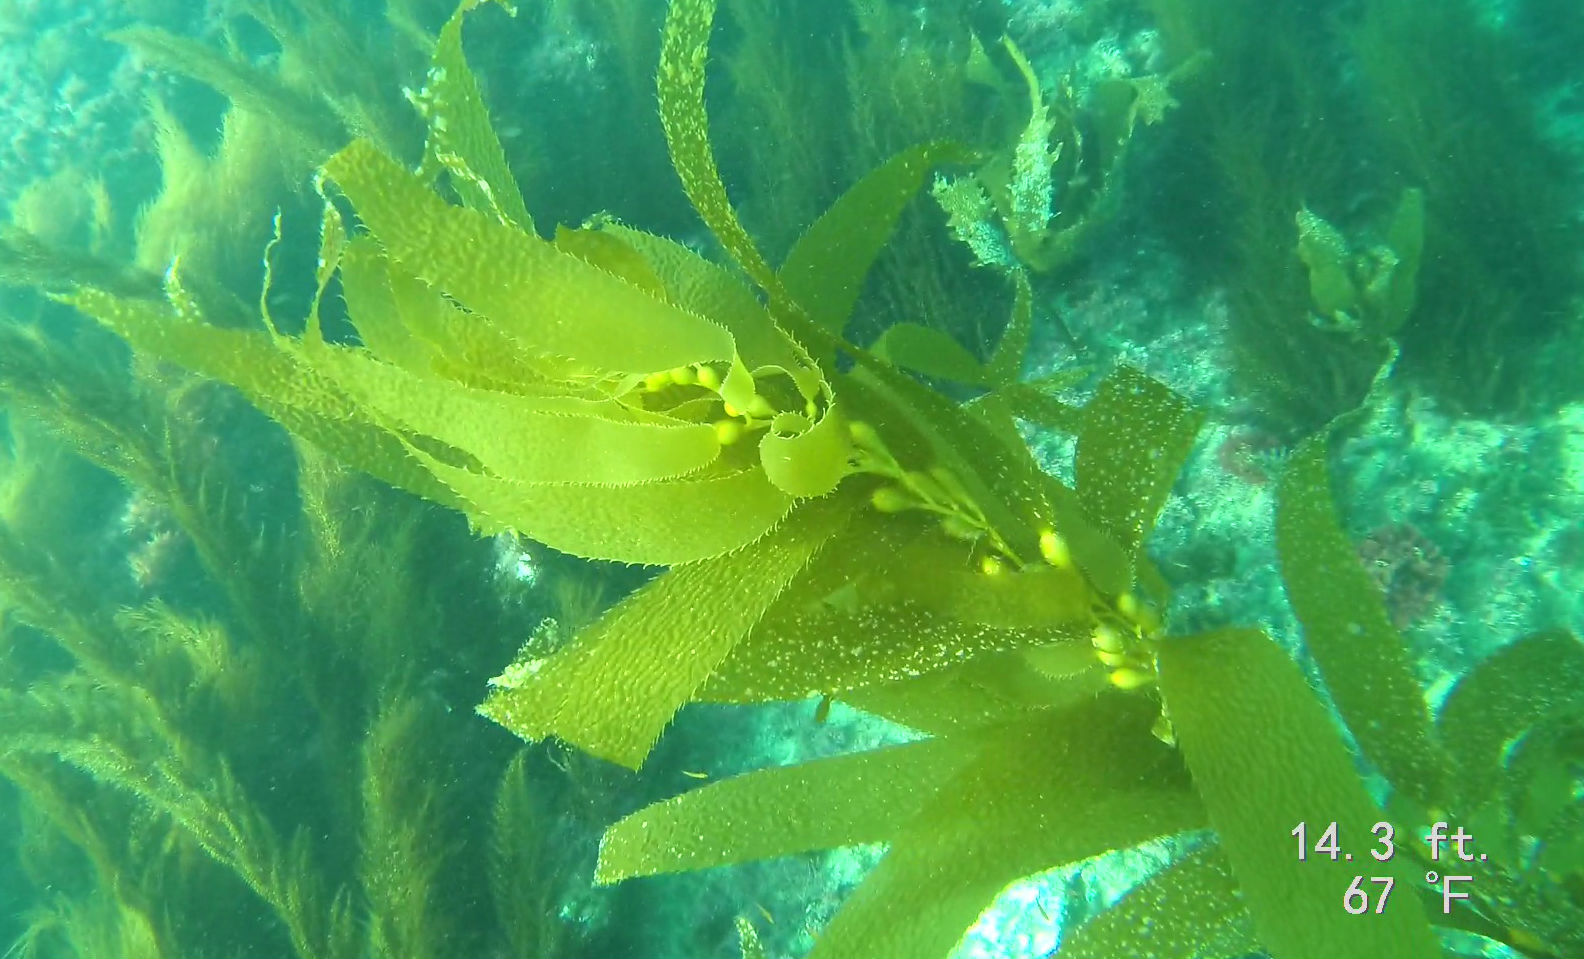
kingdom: Chromista
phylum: Ochrophyta
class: Phaeophyceae
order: Laminariales
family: Laminariaceae
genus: Macrocystis
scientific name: Macrocystis pyrifera
